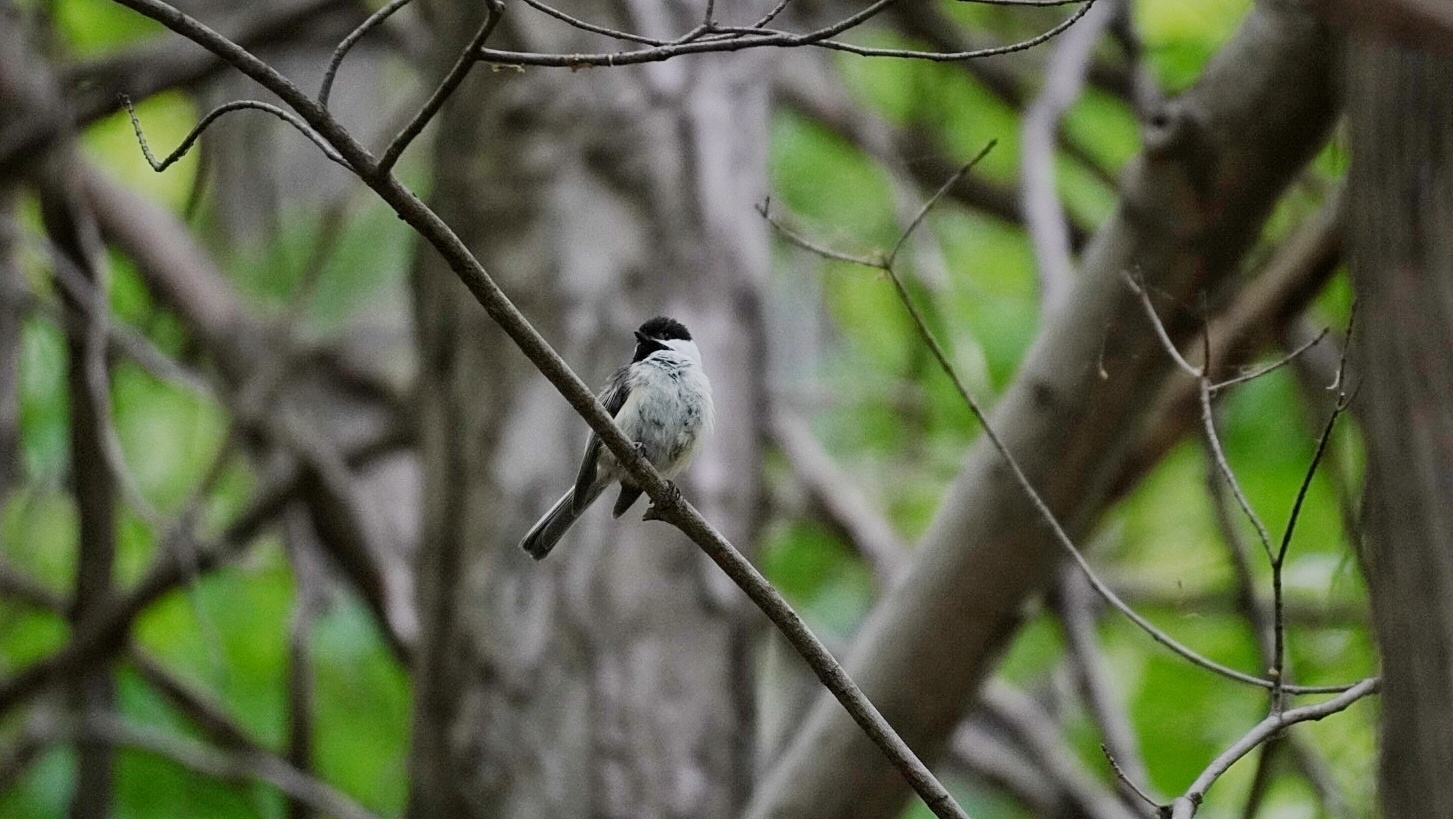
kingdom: Animalia
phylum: Chordata
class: Aves
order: Passeriformes
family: Paridae
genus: Poecile
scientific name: Poecile atricapillus
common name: Black-capped chickadee
